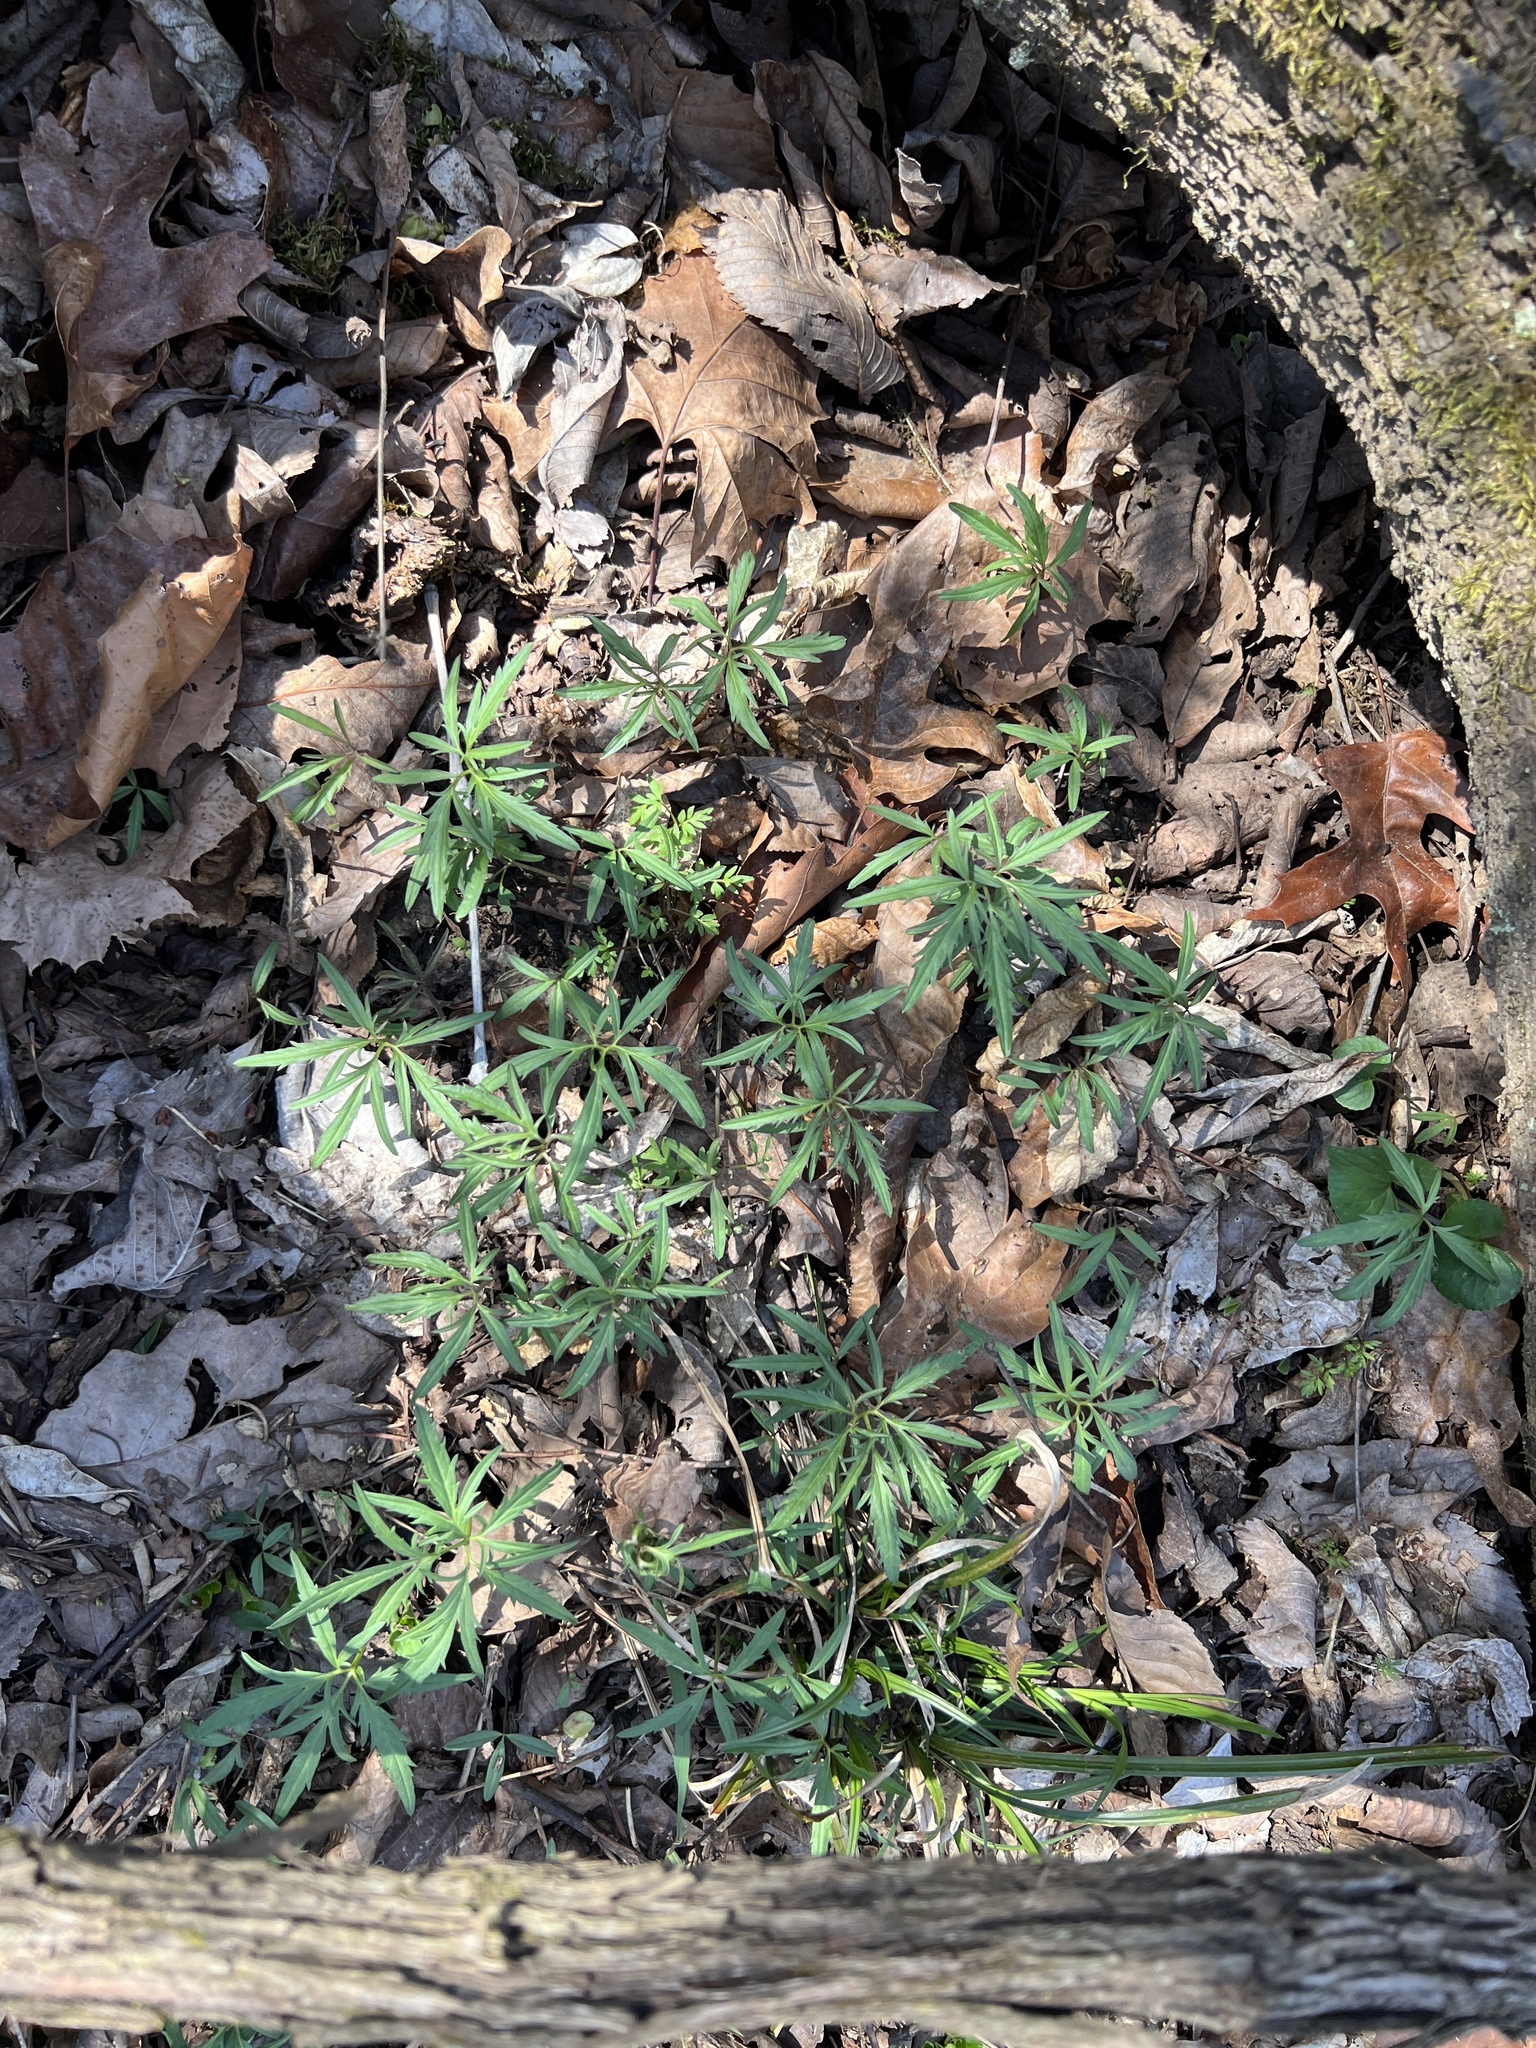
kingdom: Plantae
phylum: Tracheophyta
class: Magnoliopsida
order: Brassicales
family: Brassicaceae
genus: Cardamine
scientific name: Cardamine concatenata
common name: Cut-leaf toothcup
